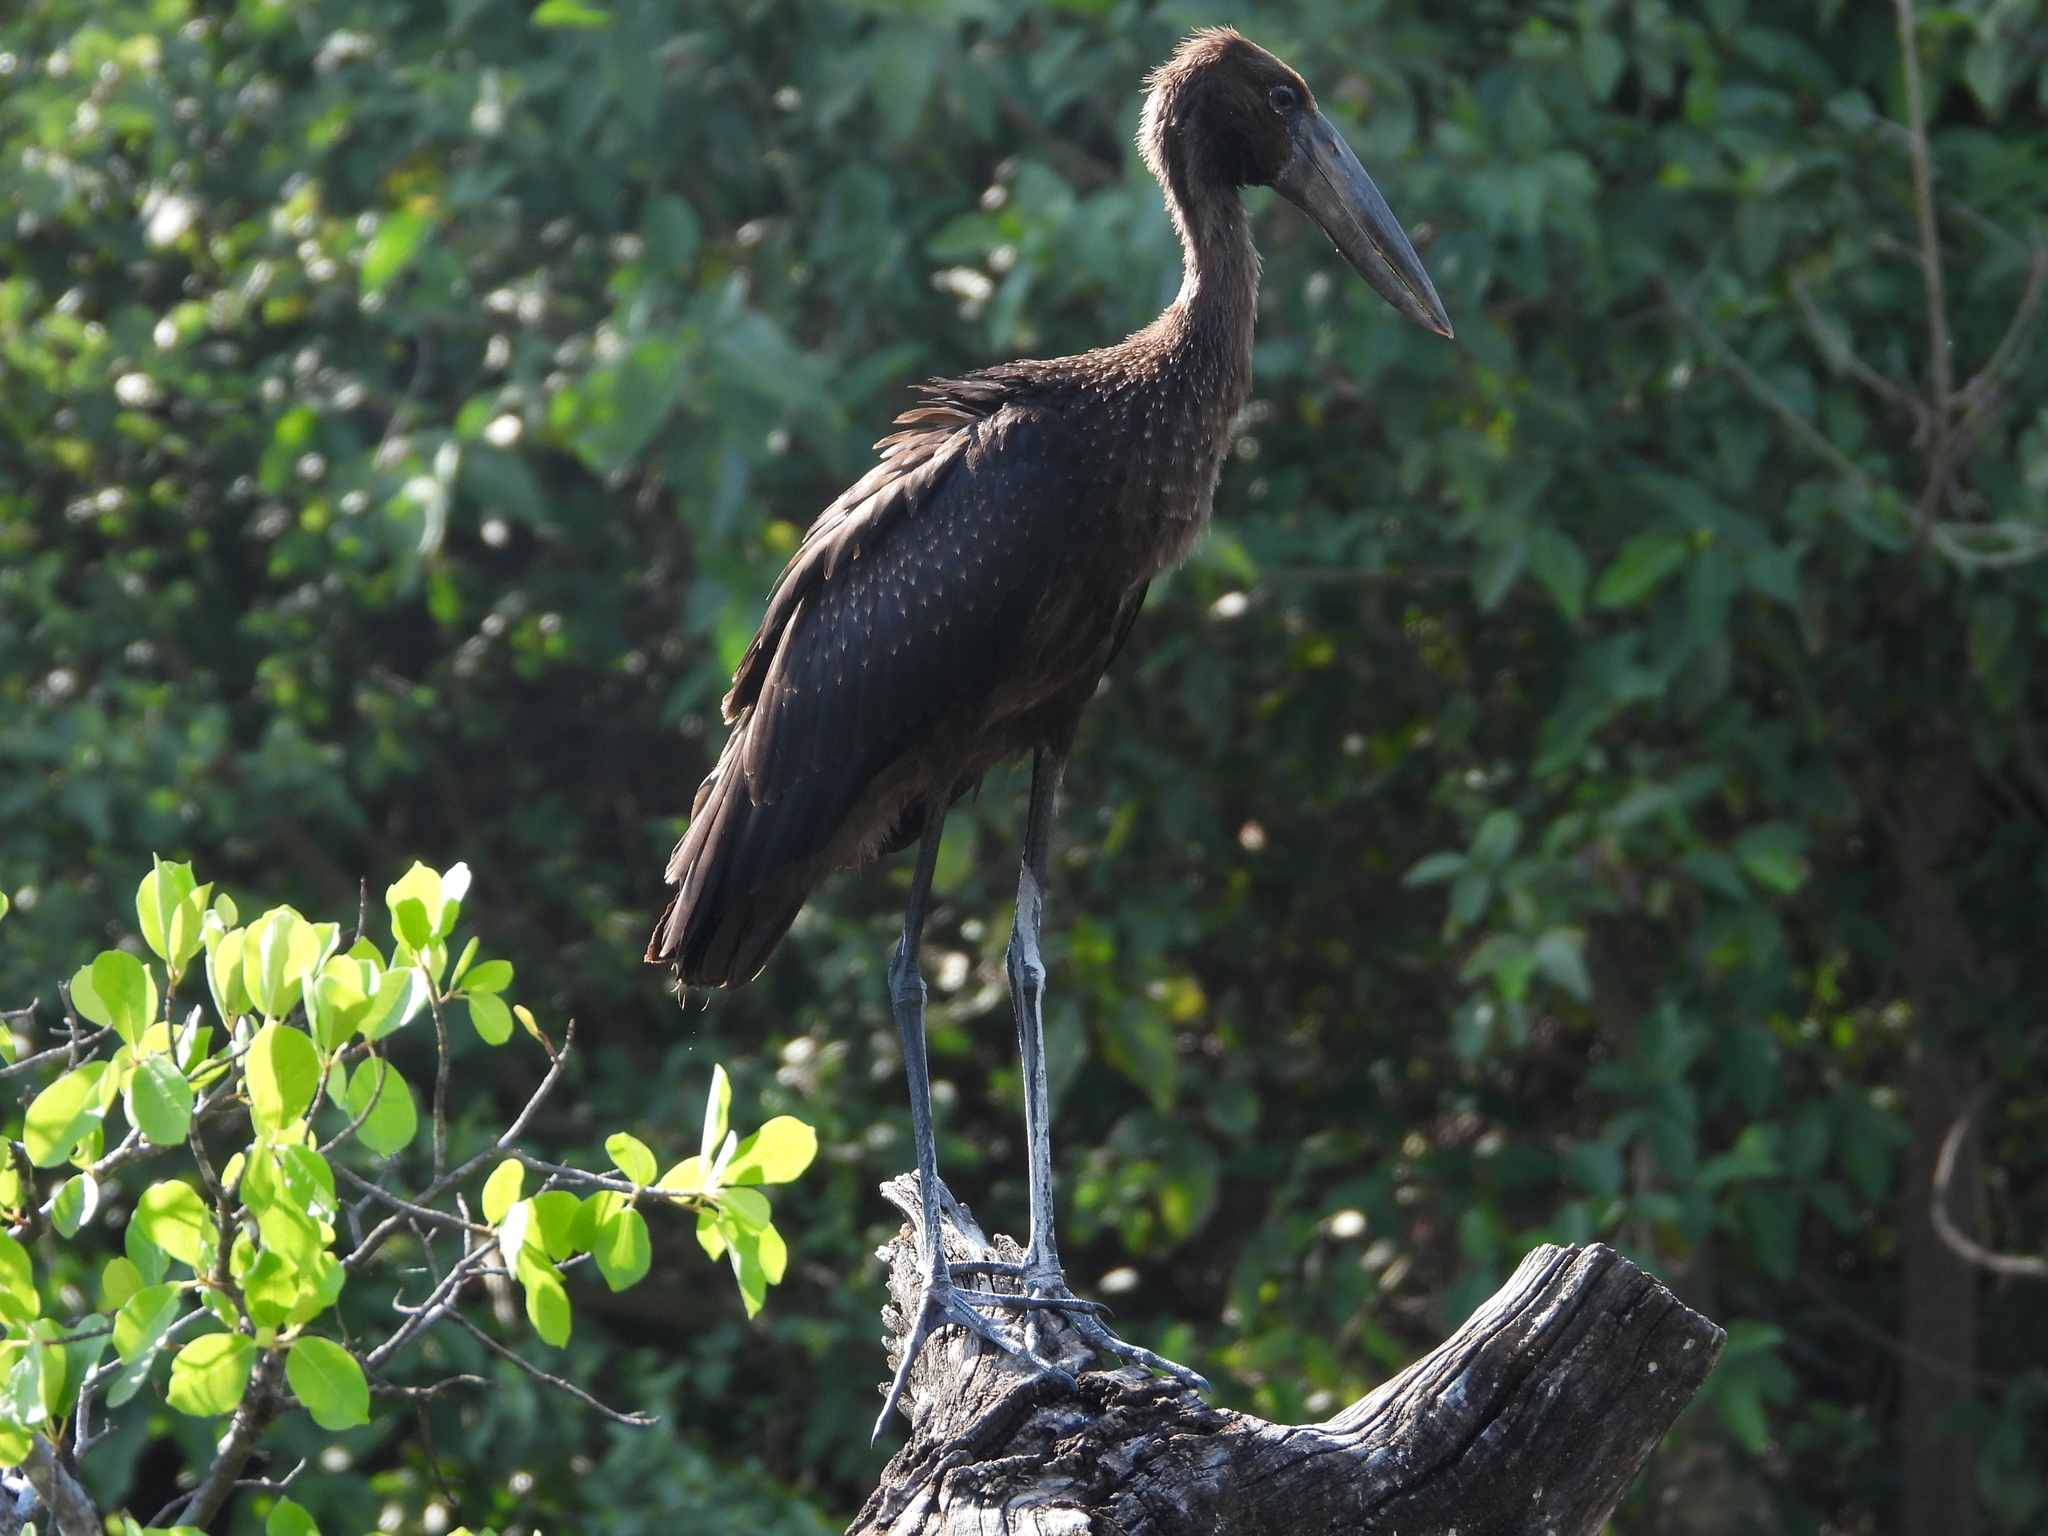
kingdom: Animalia
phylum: Chordata
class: Aves
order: Ciconiiformes
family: Ciconiidae
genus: Anastomus
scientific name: Anastomus lamelligerus
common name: African openbill
